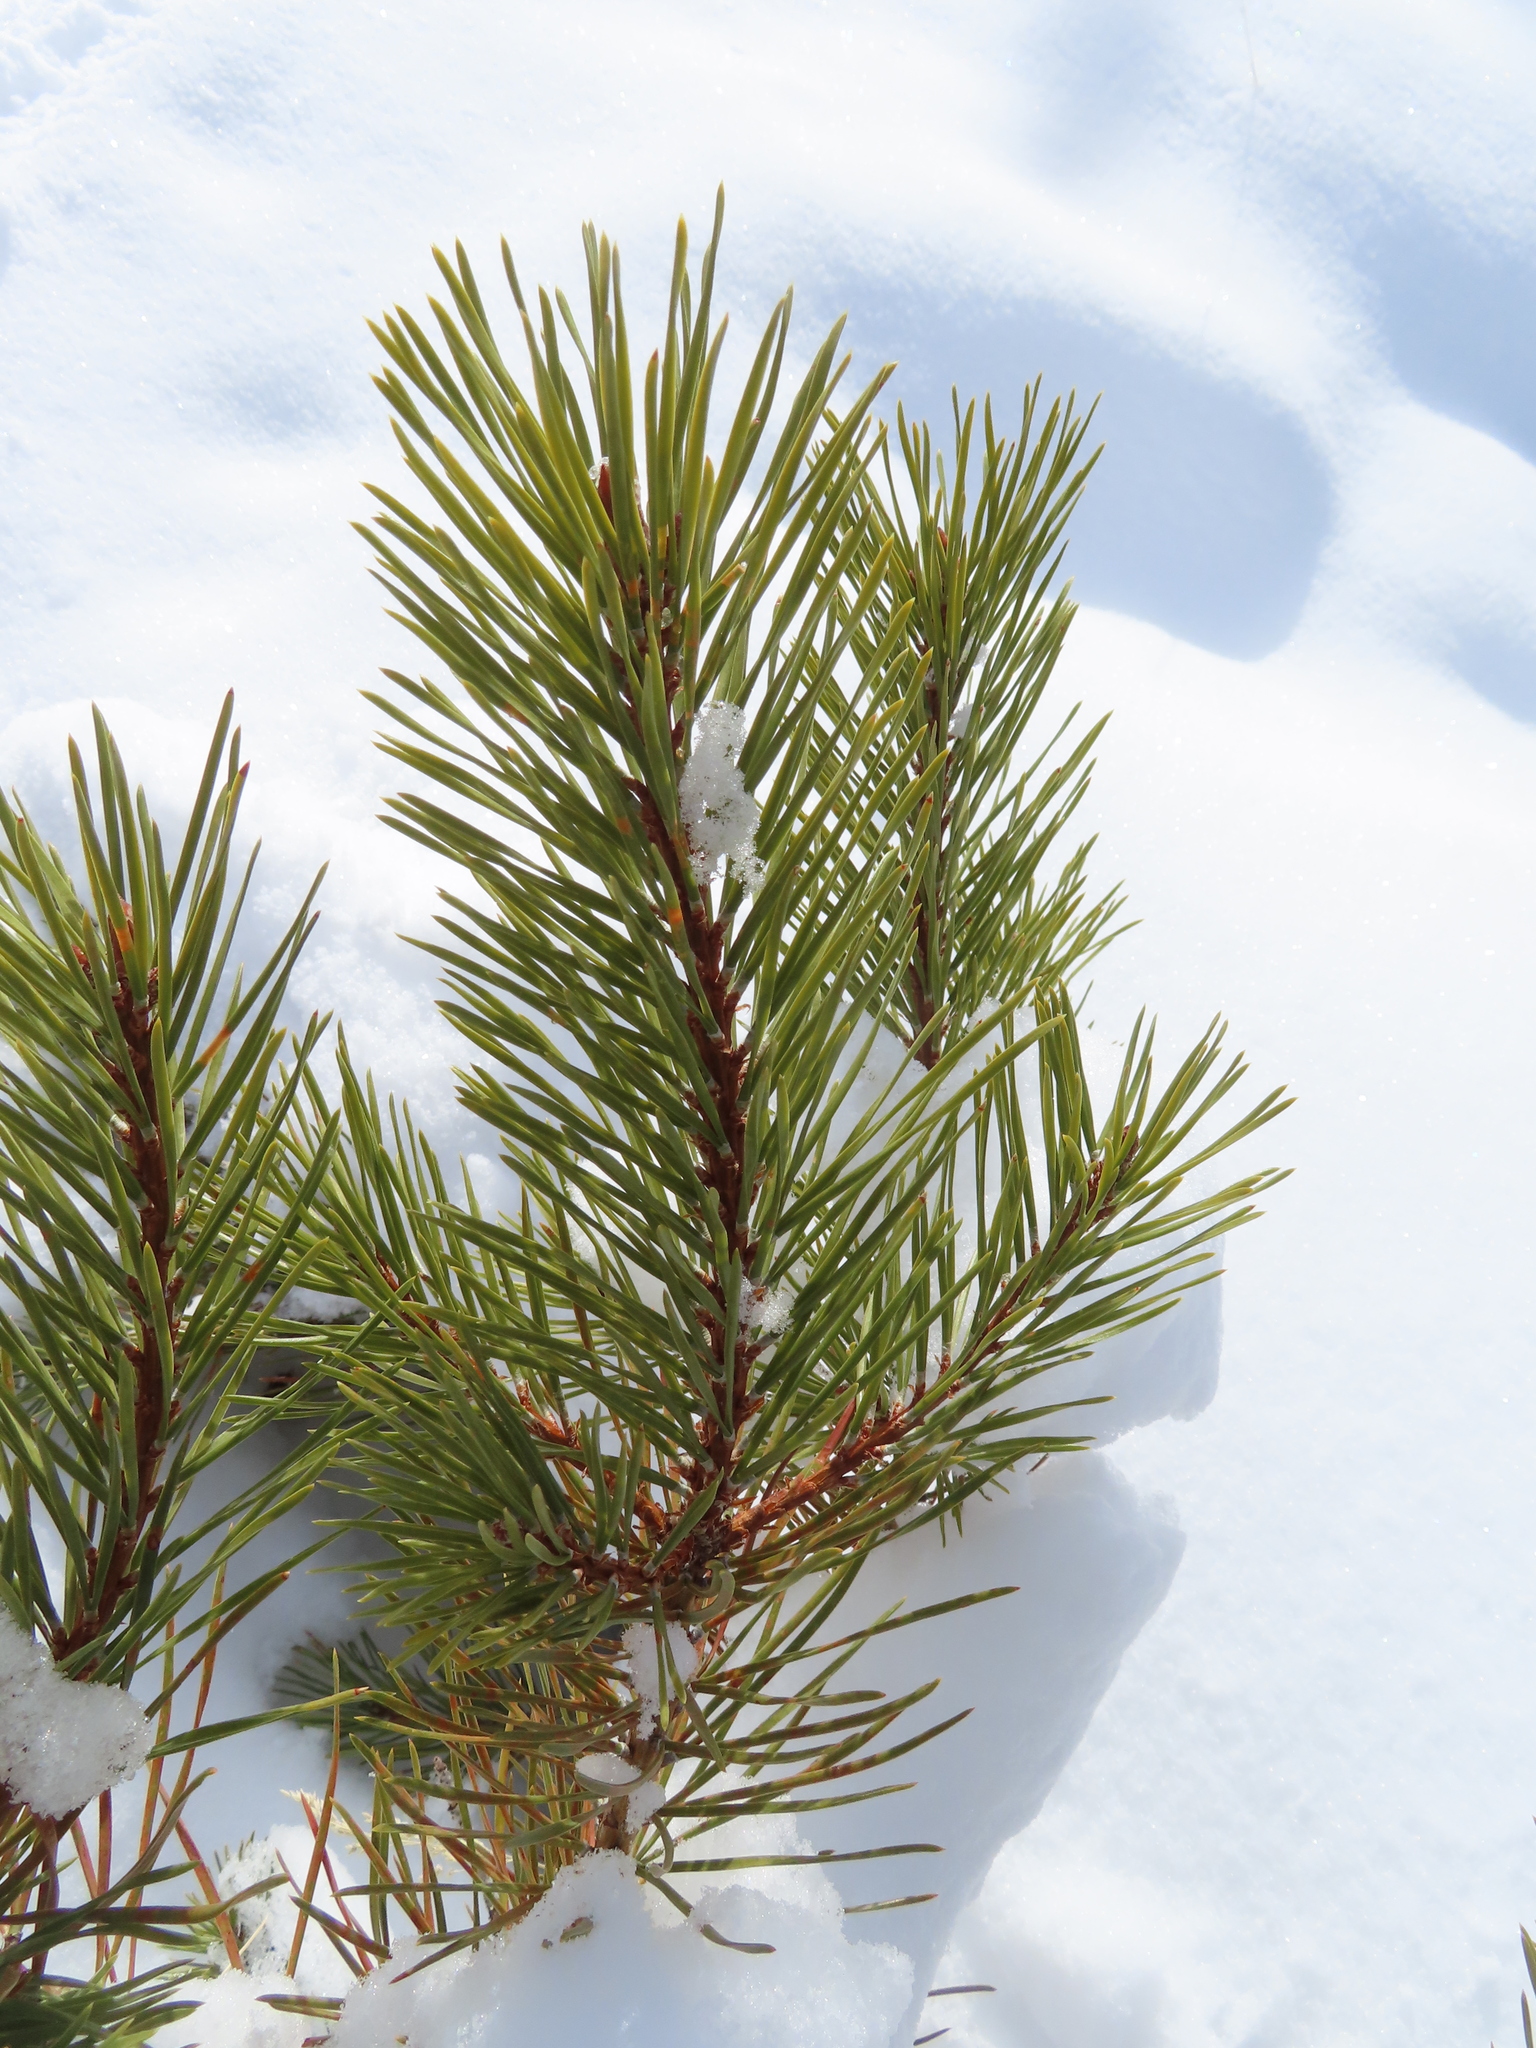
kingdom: Plantae
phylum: Tracheophyta
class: Pinopsida
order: Pinales
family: Pinaceae
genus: Pinus
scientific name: Pinus contorta
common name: Lodgepole pine
